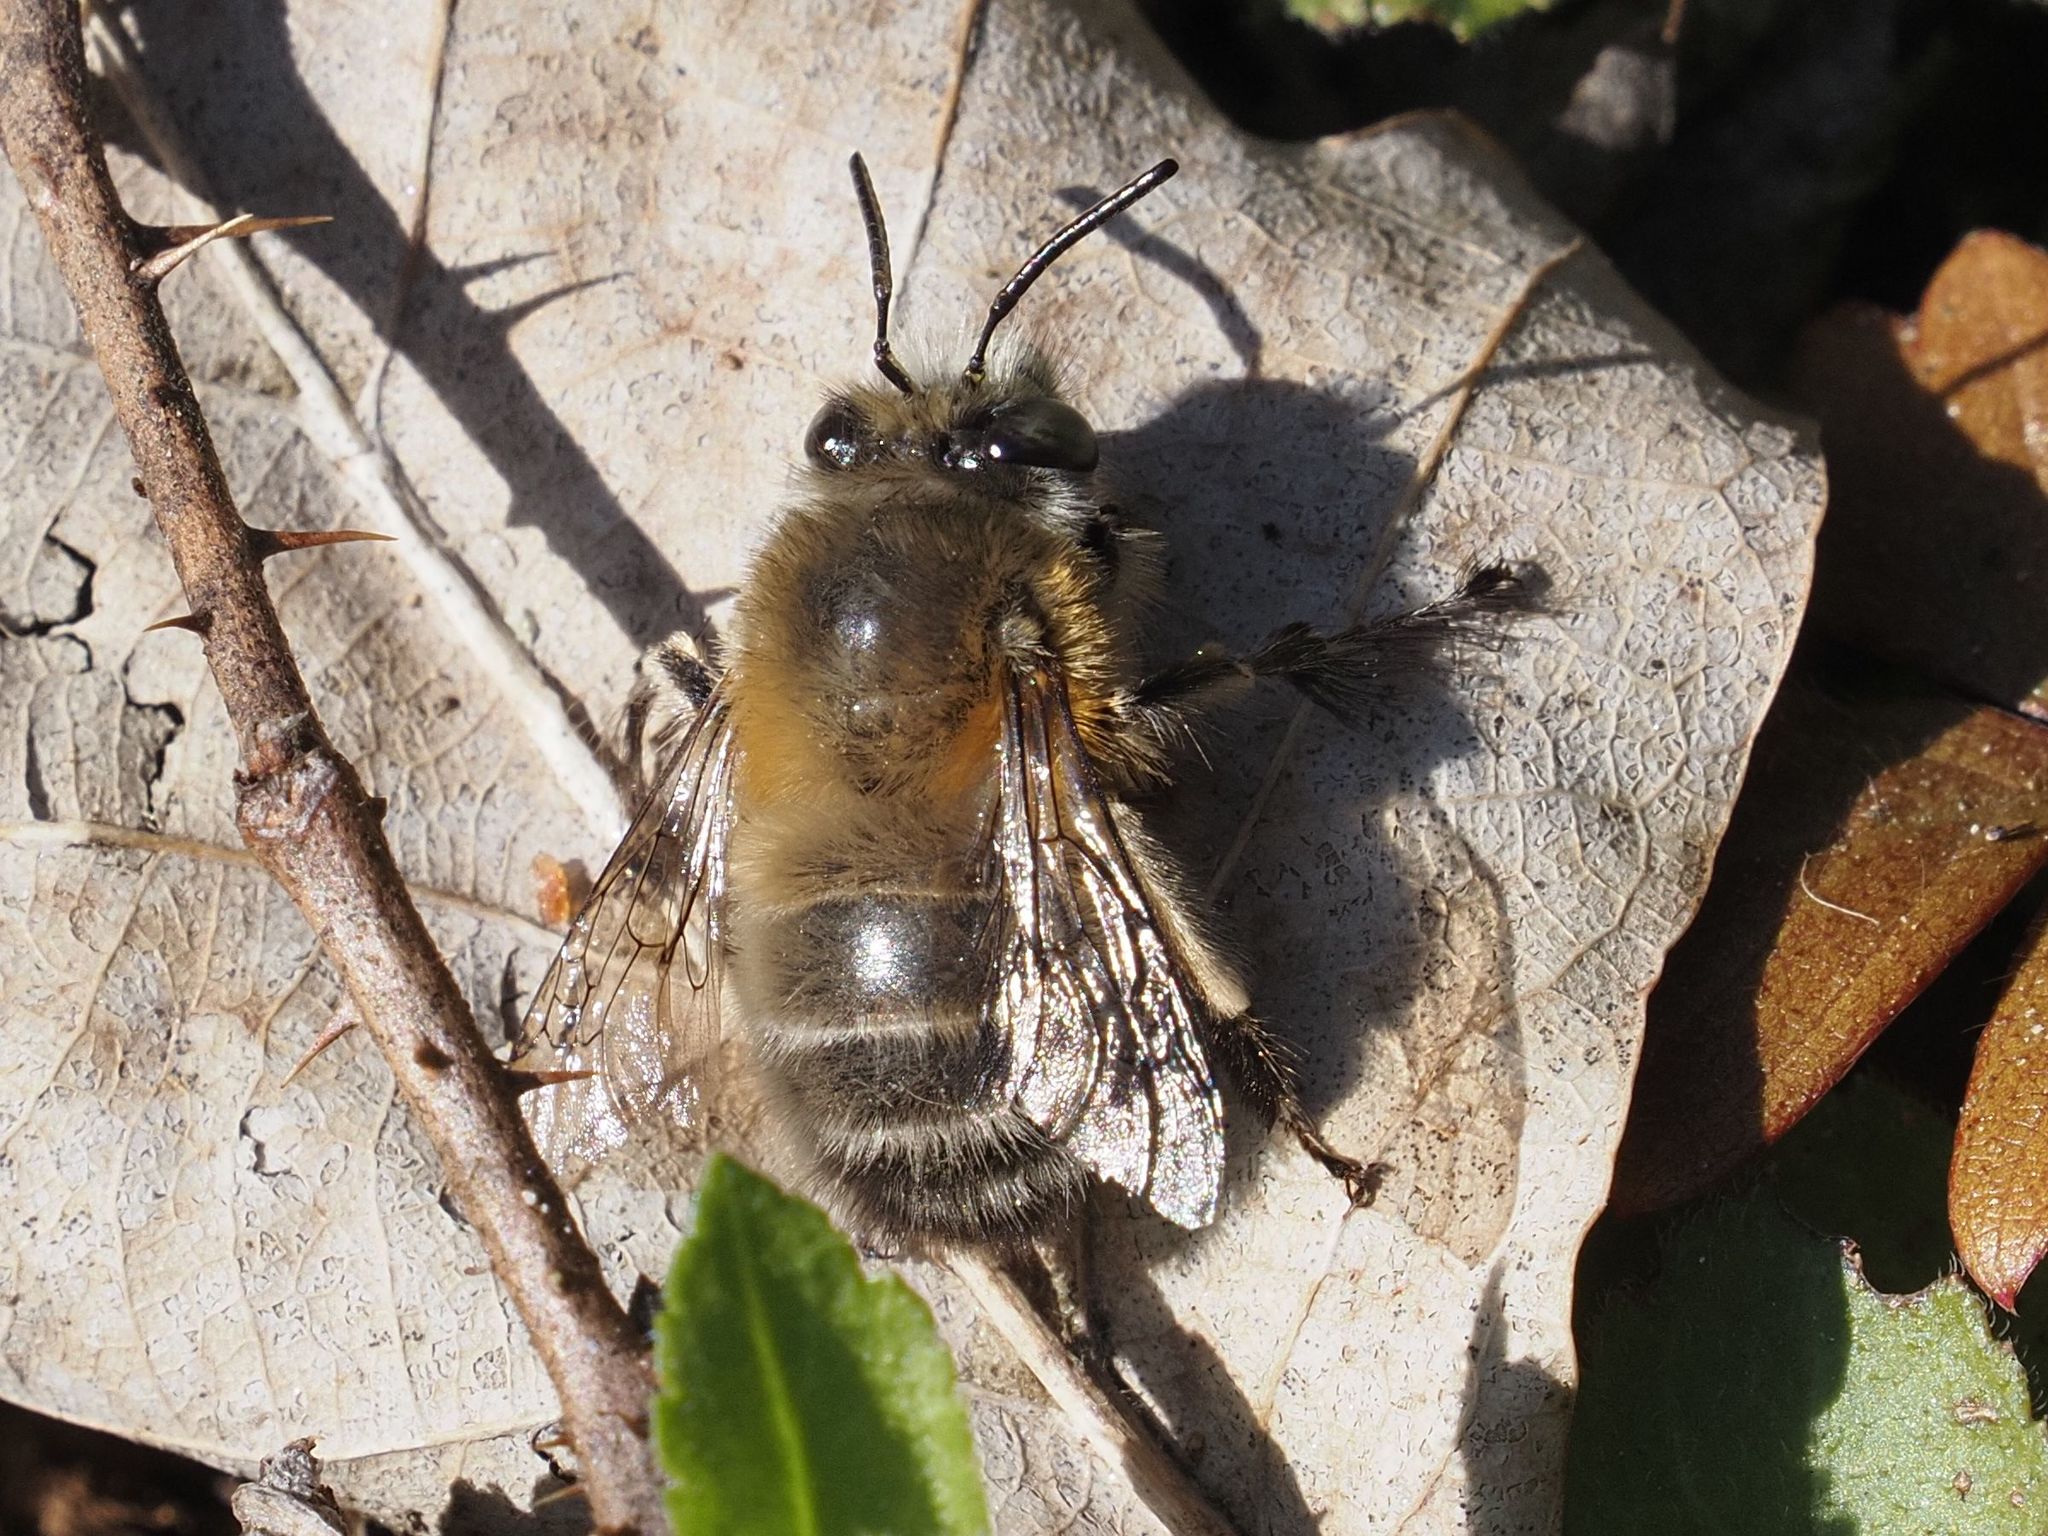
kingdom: Animalia
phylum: Arthropoda
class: Insecta
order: Hymenoptera
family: Apidae
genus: Anthophora
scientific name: Anthophora plumipes
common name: Hairy-footed flower bee
